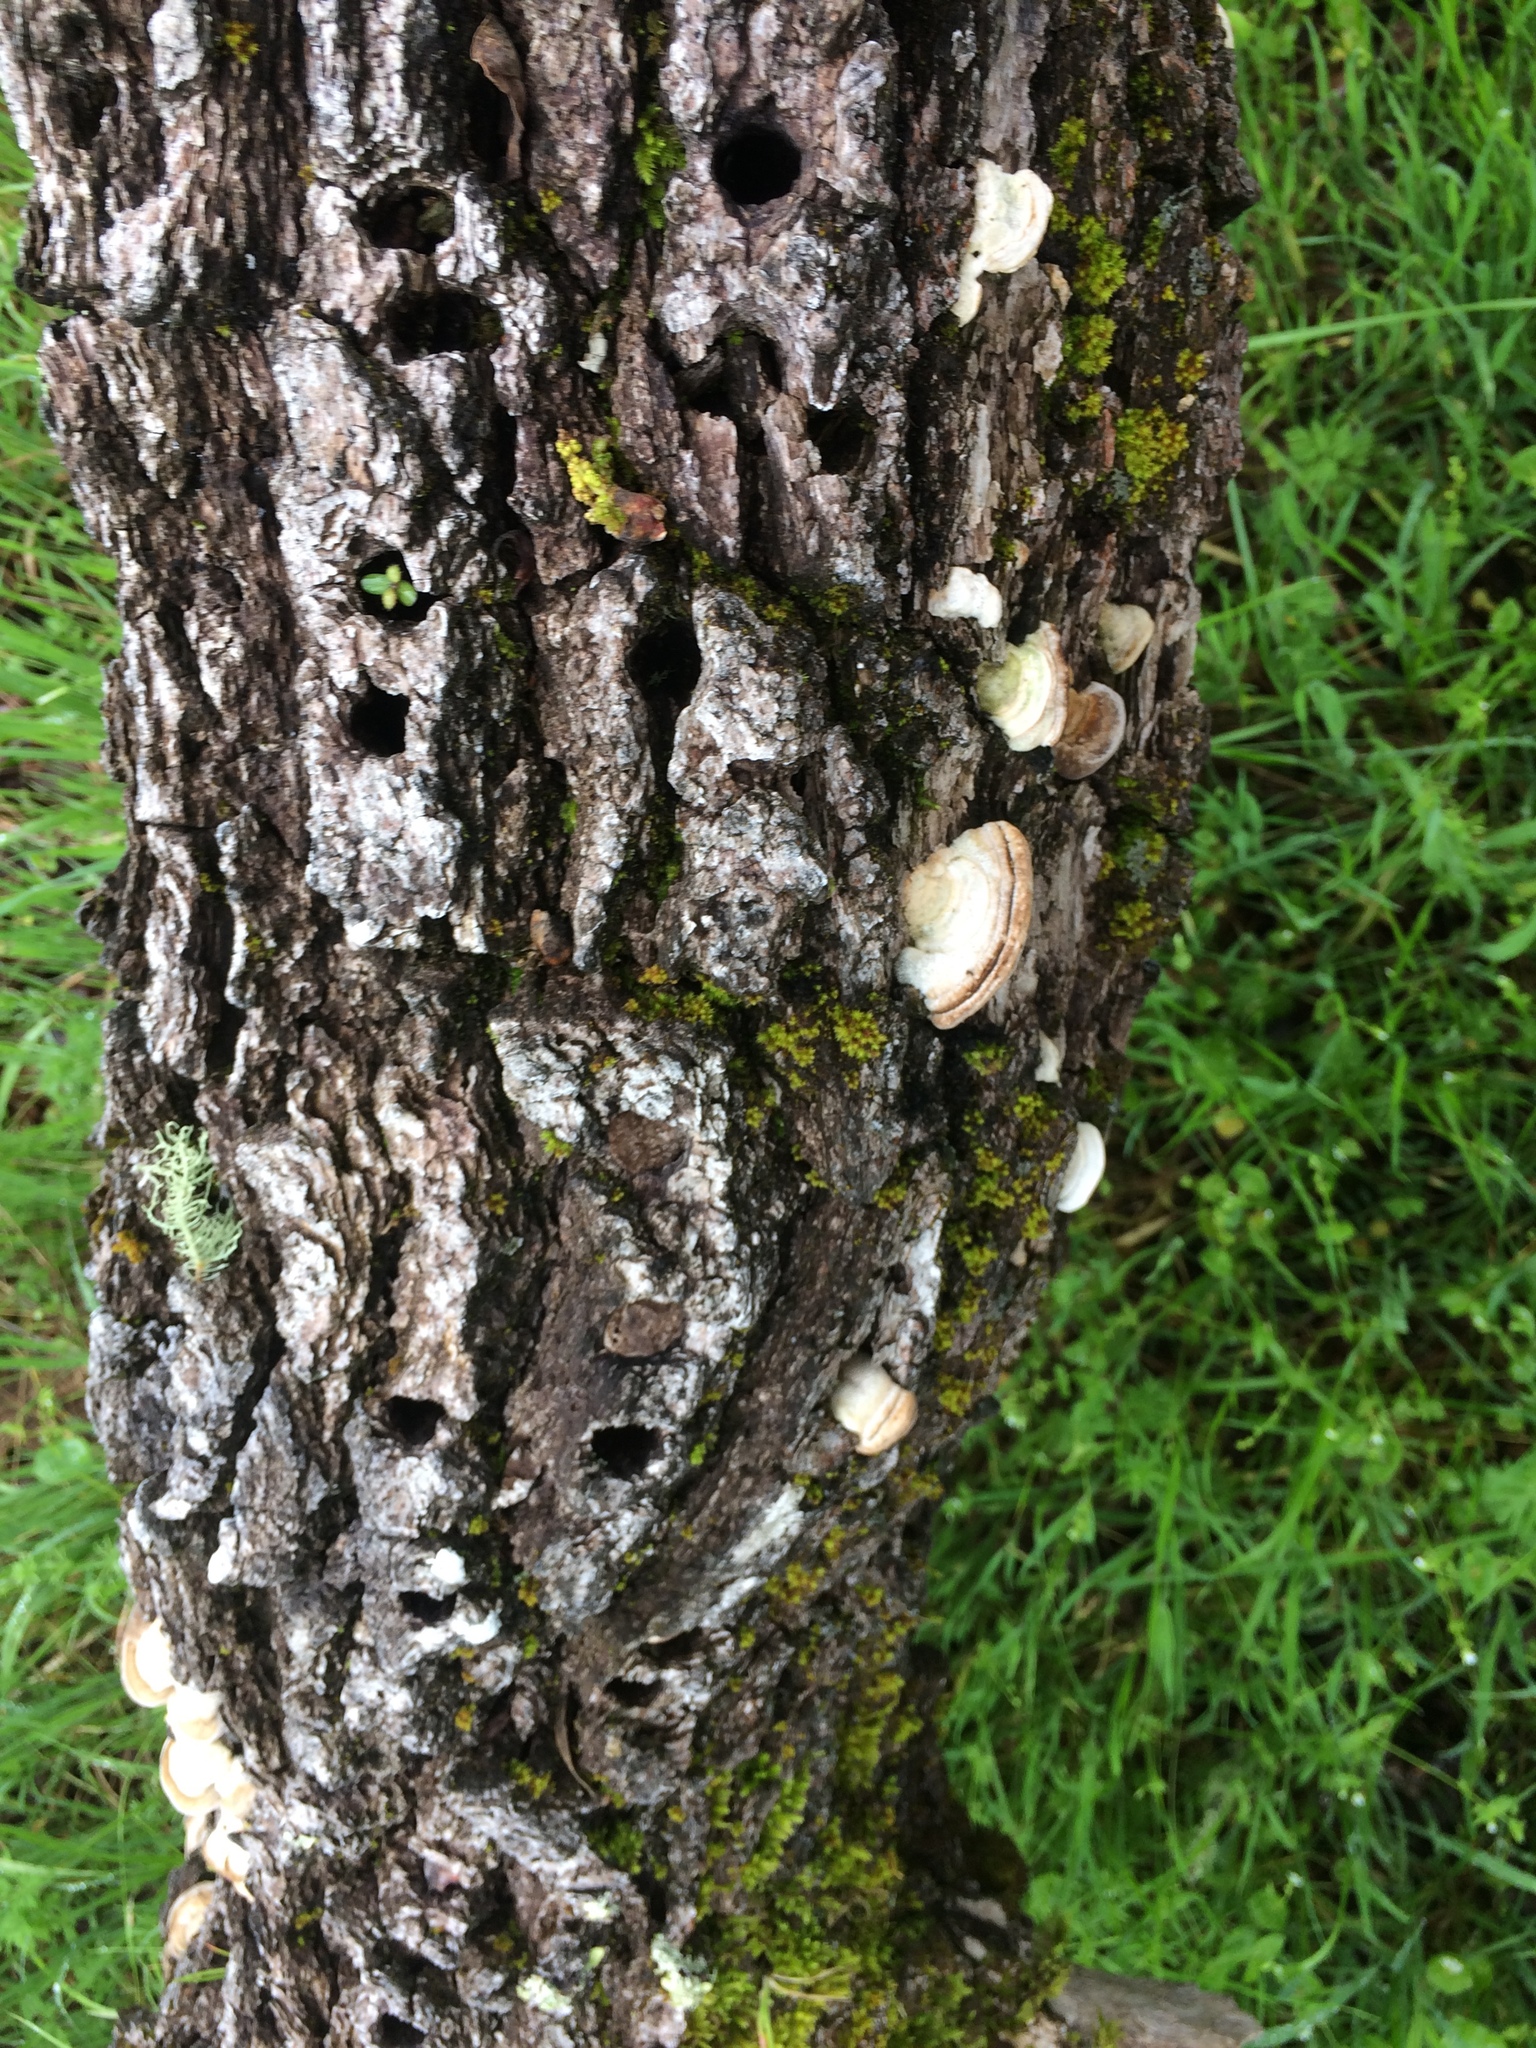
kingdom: Animalia
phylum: Chordata
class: Aves
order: Piciformes
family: Picidae
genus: Melanerpes
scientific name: Melanerpes formicivorus
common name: Acorn woodpecker
